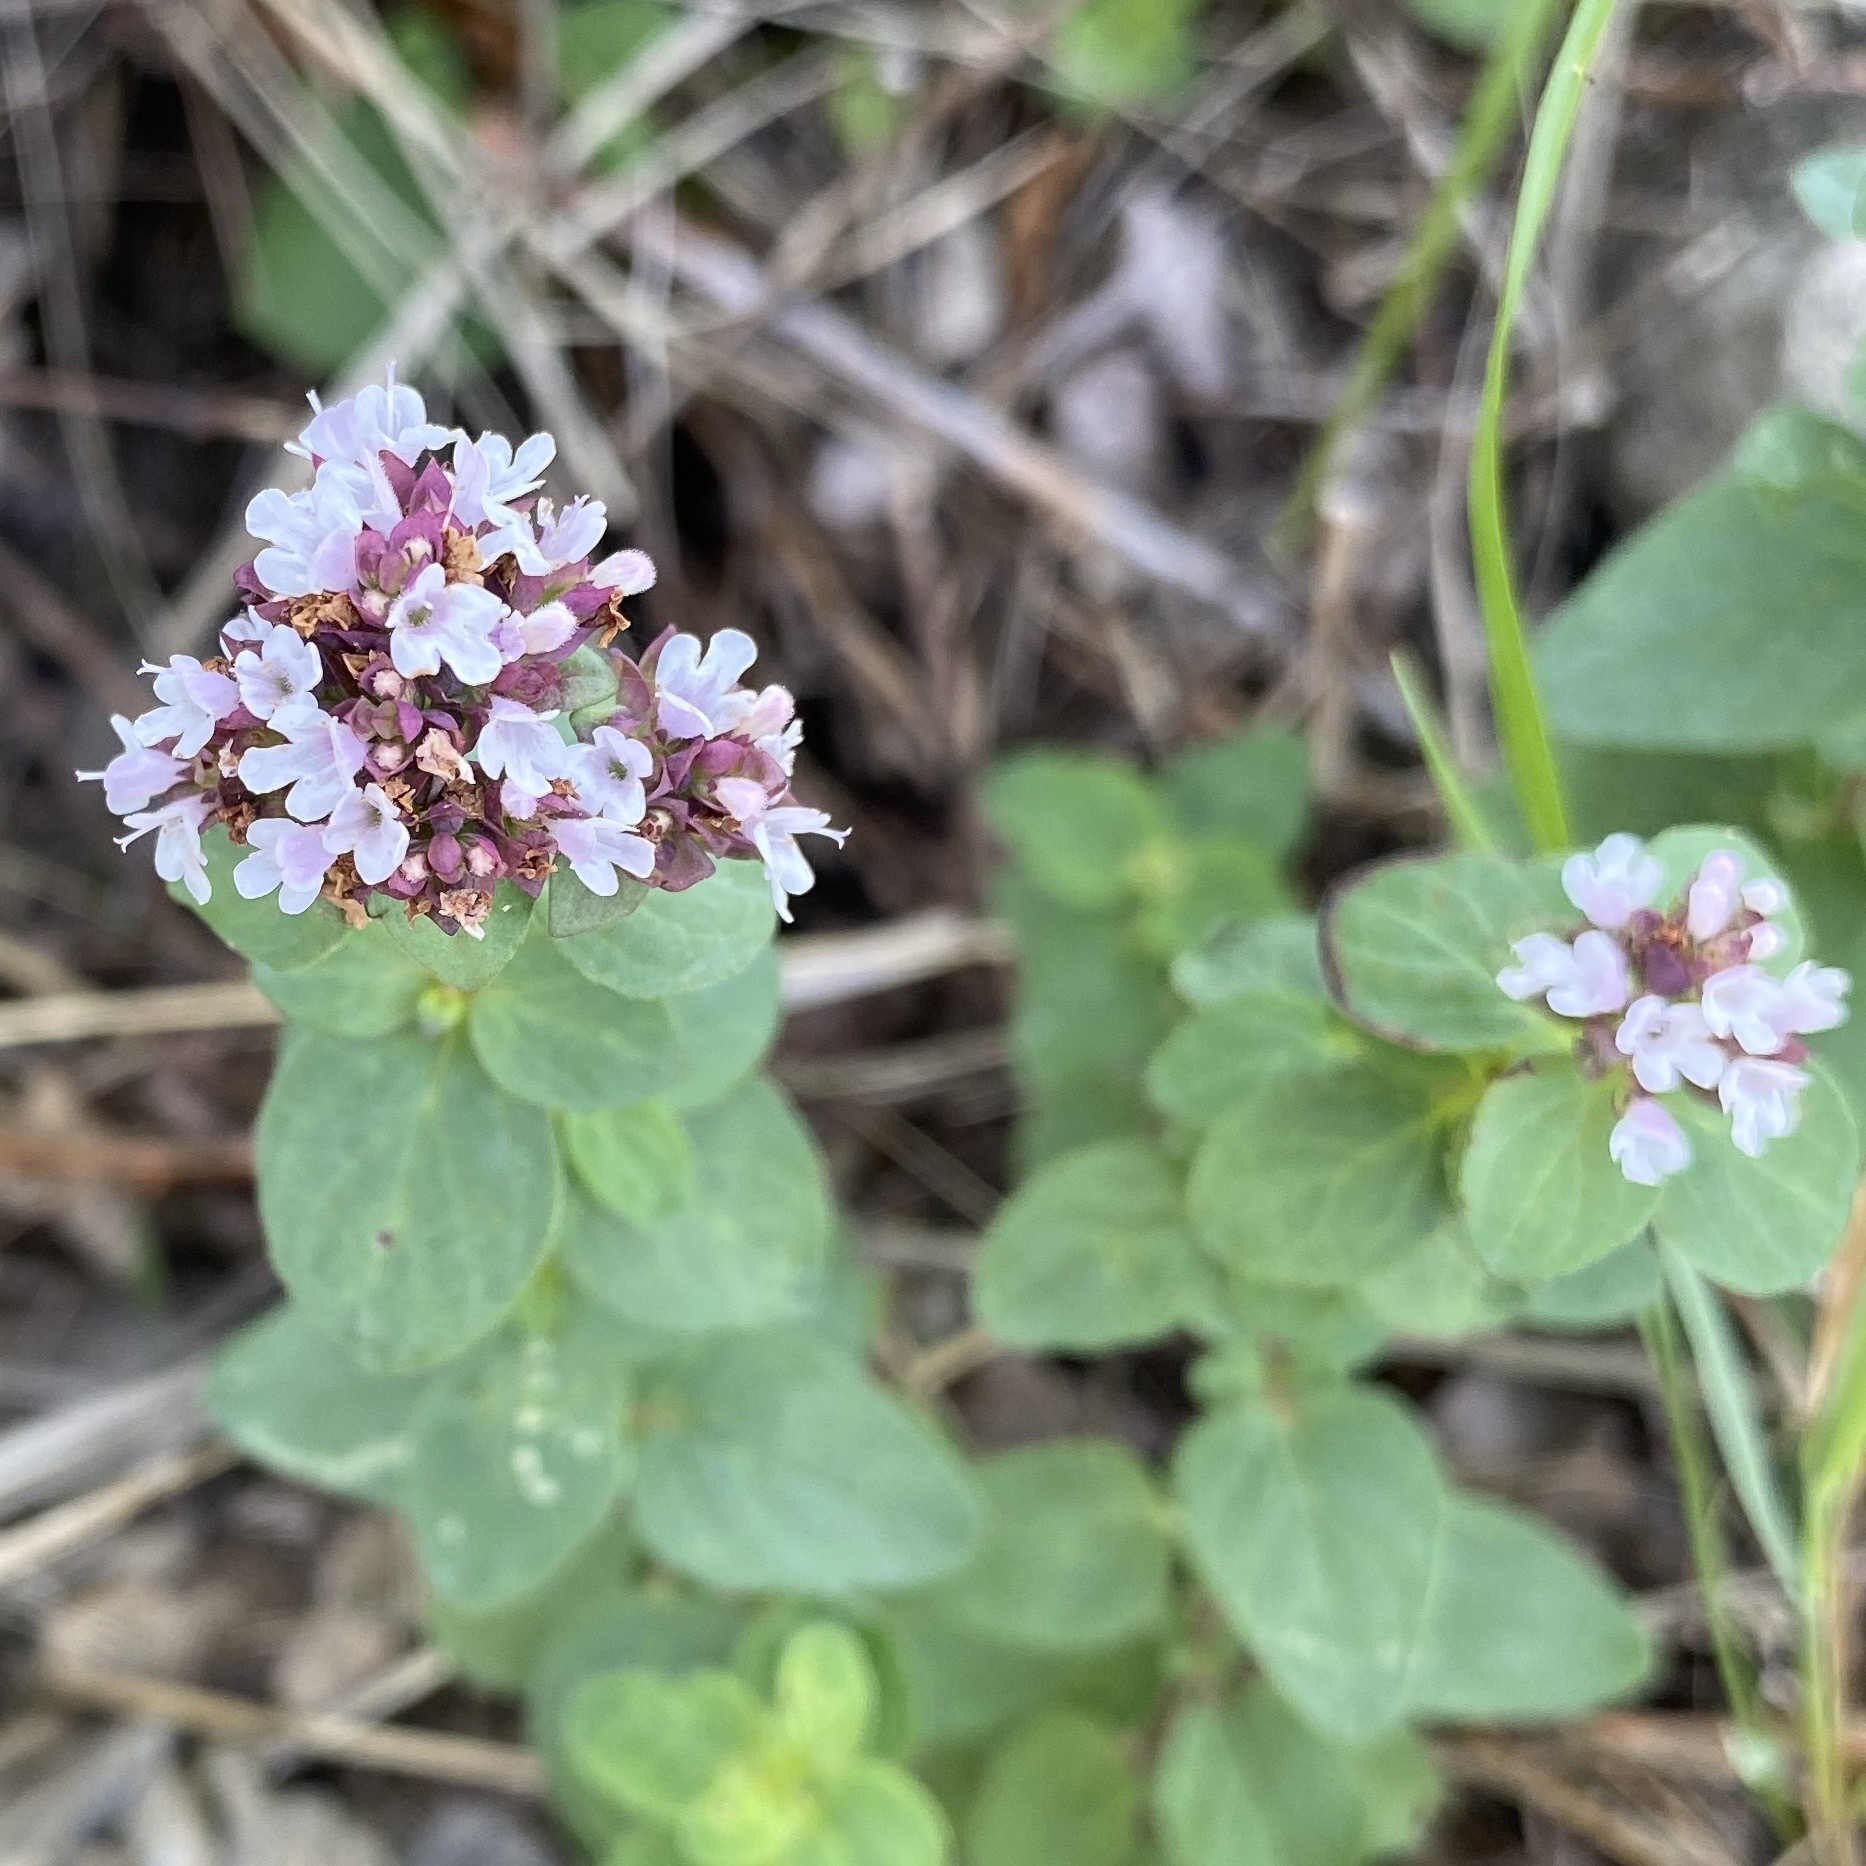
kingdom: Plantae
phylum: Tracheophyta
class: Magnoliopsida
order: Lamiales
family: Lamiaceae
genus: Origanum
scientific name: Origanum vulgare
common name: Wild marjoram
